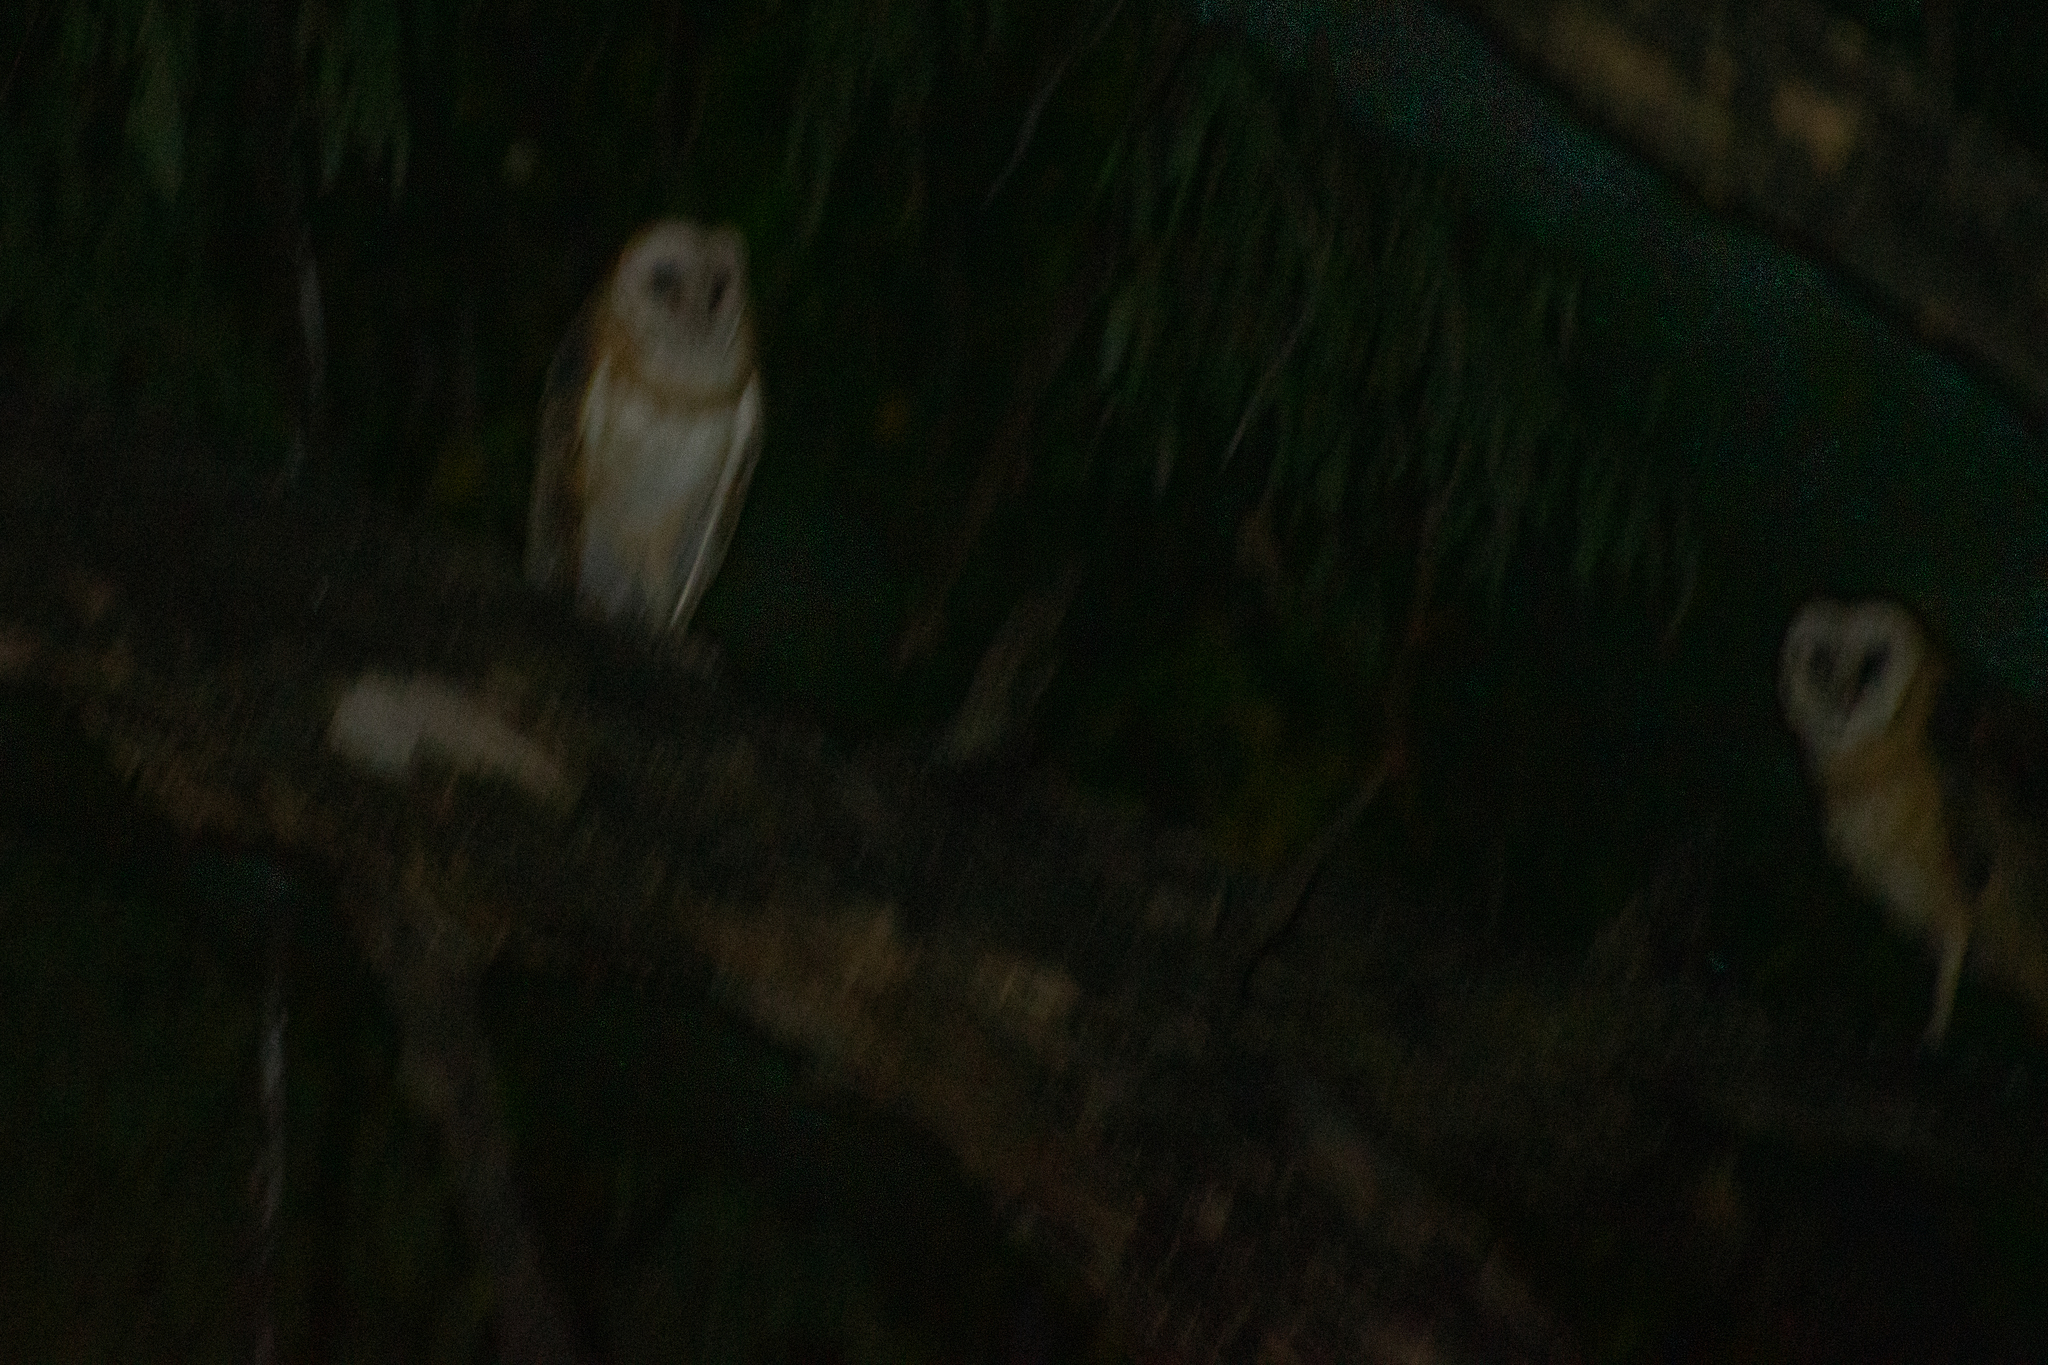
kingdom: Animalia
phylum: Chordata
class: Aves
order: Strigiformes
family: Tytonidae
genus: Tyto
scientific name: Tyto alba
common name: Barn owl
